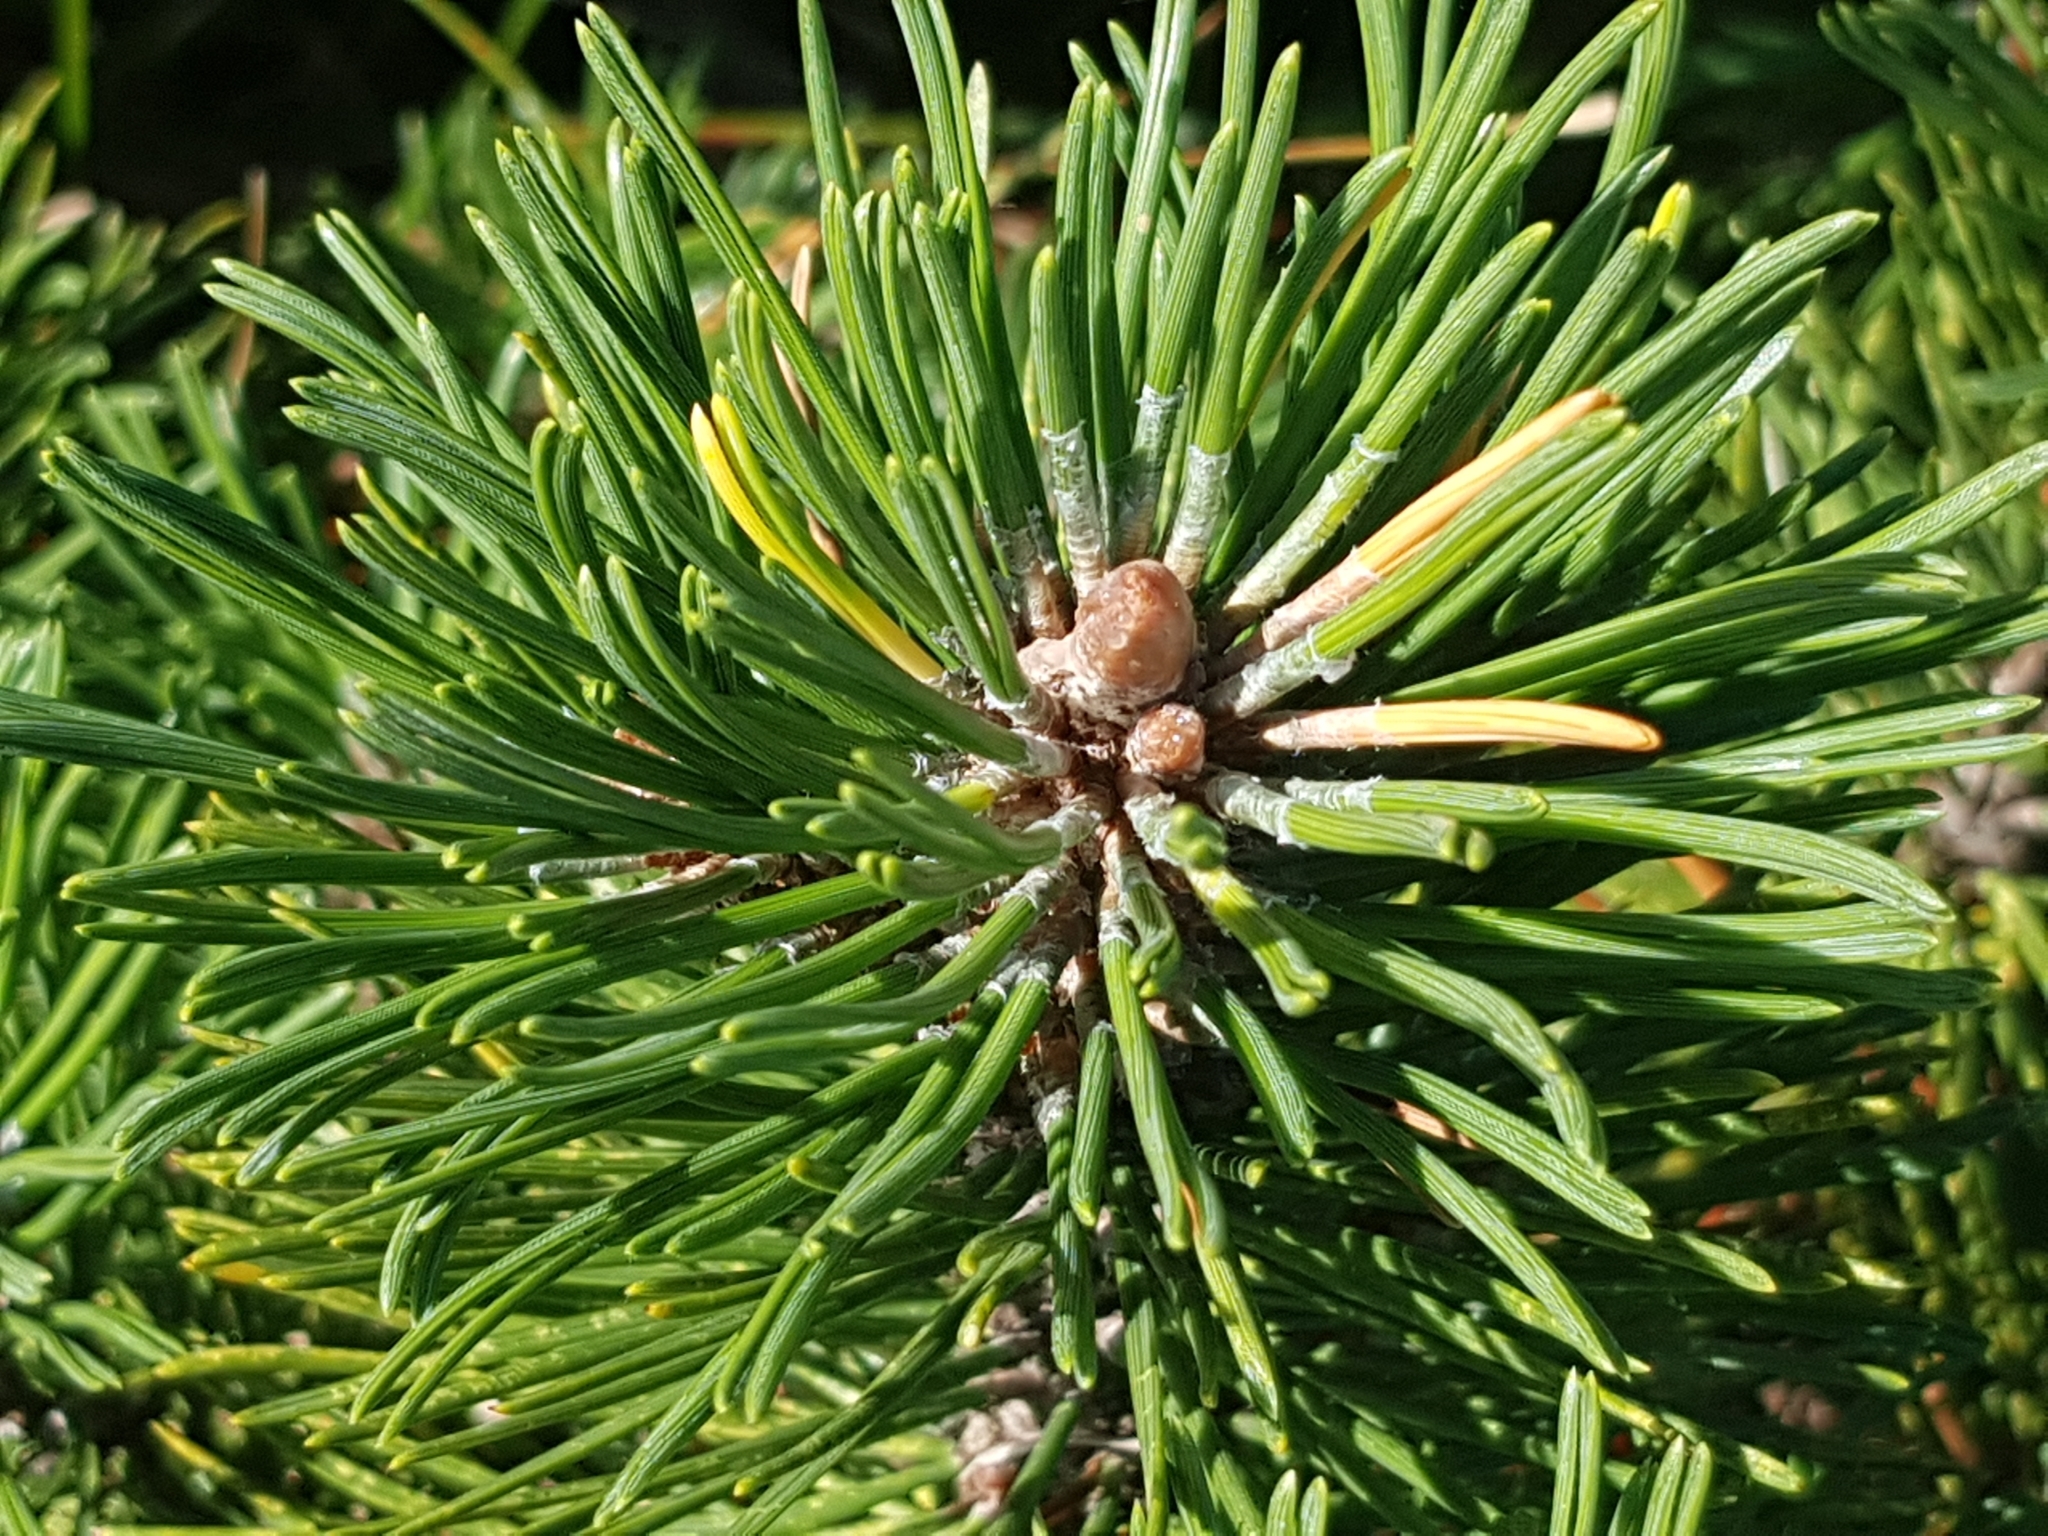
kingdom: Plantae
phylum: Tracheophyta
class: Pinopsida
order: Pinales
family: Pinaceae
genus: Pinus
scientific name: Pinus mugo
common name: Mugo pine
